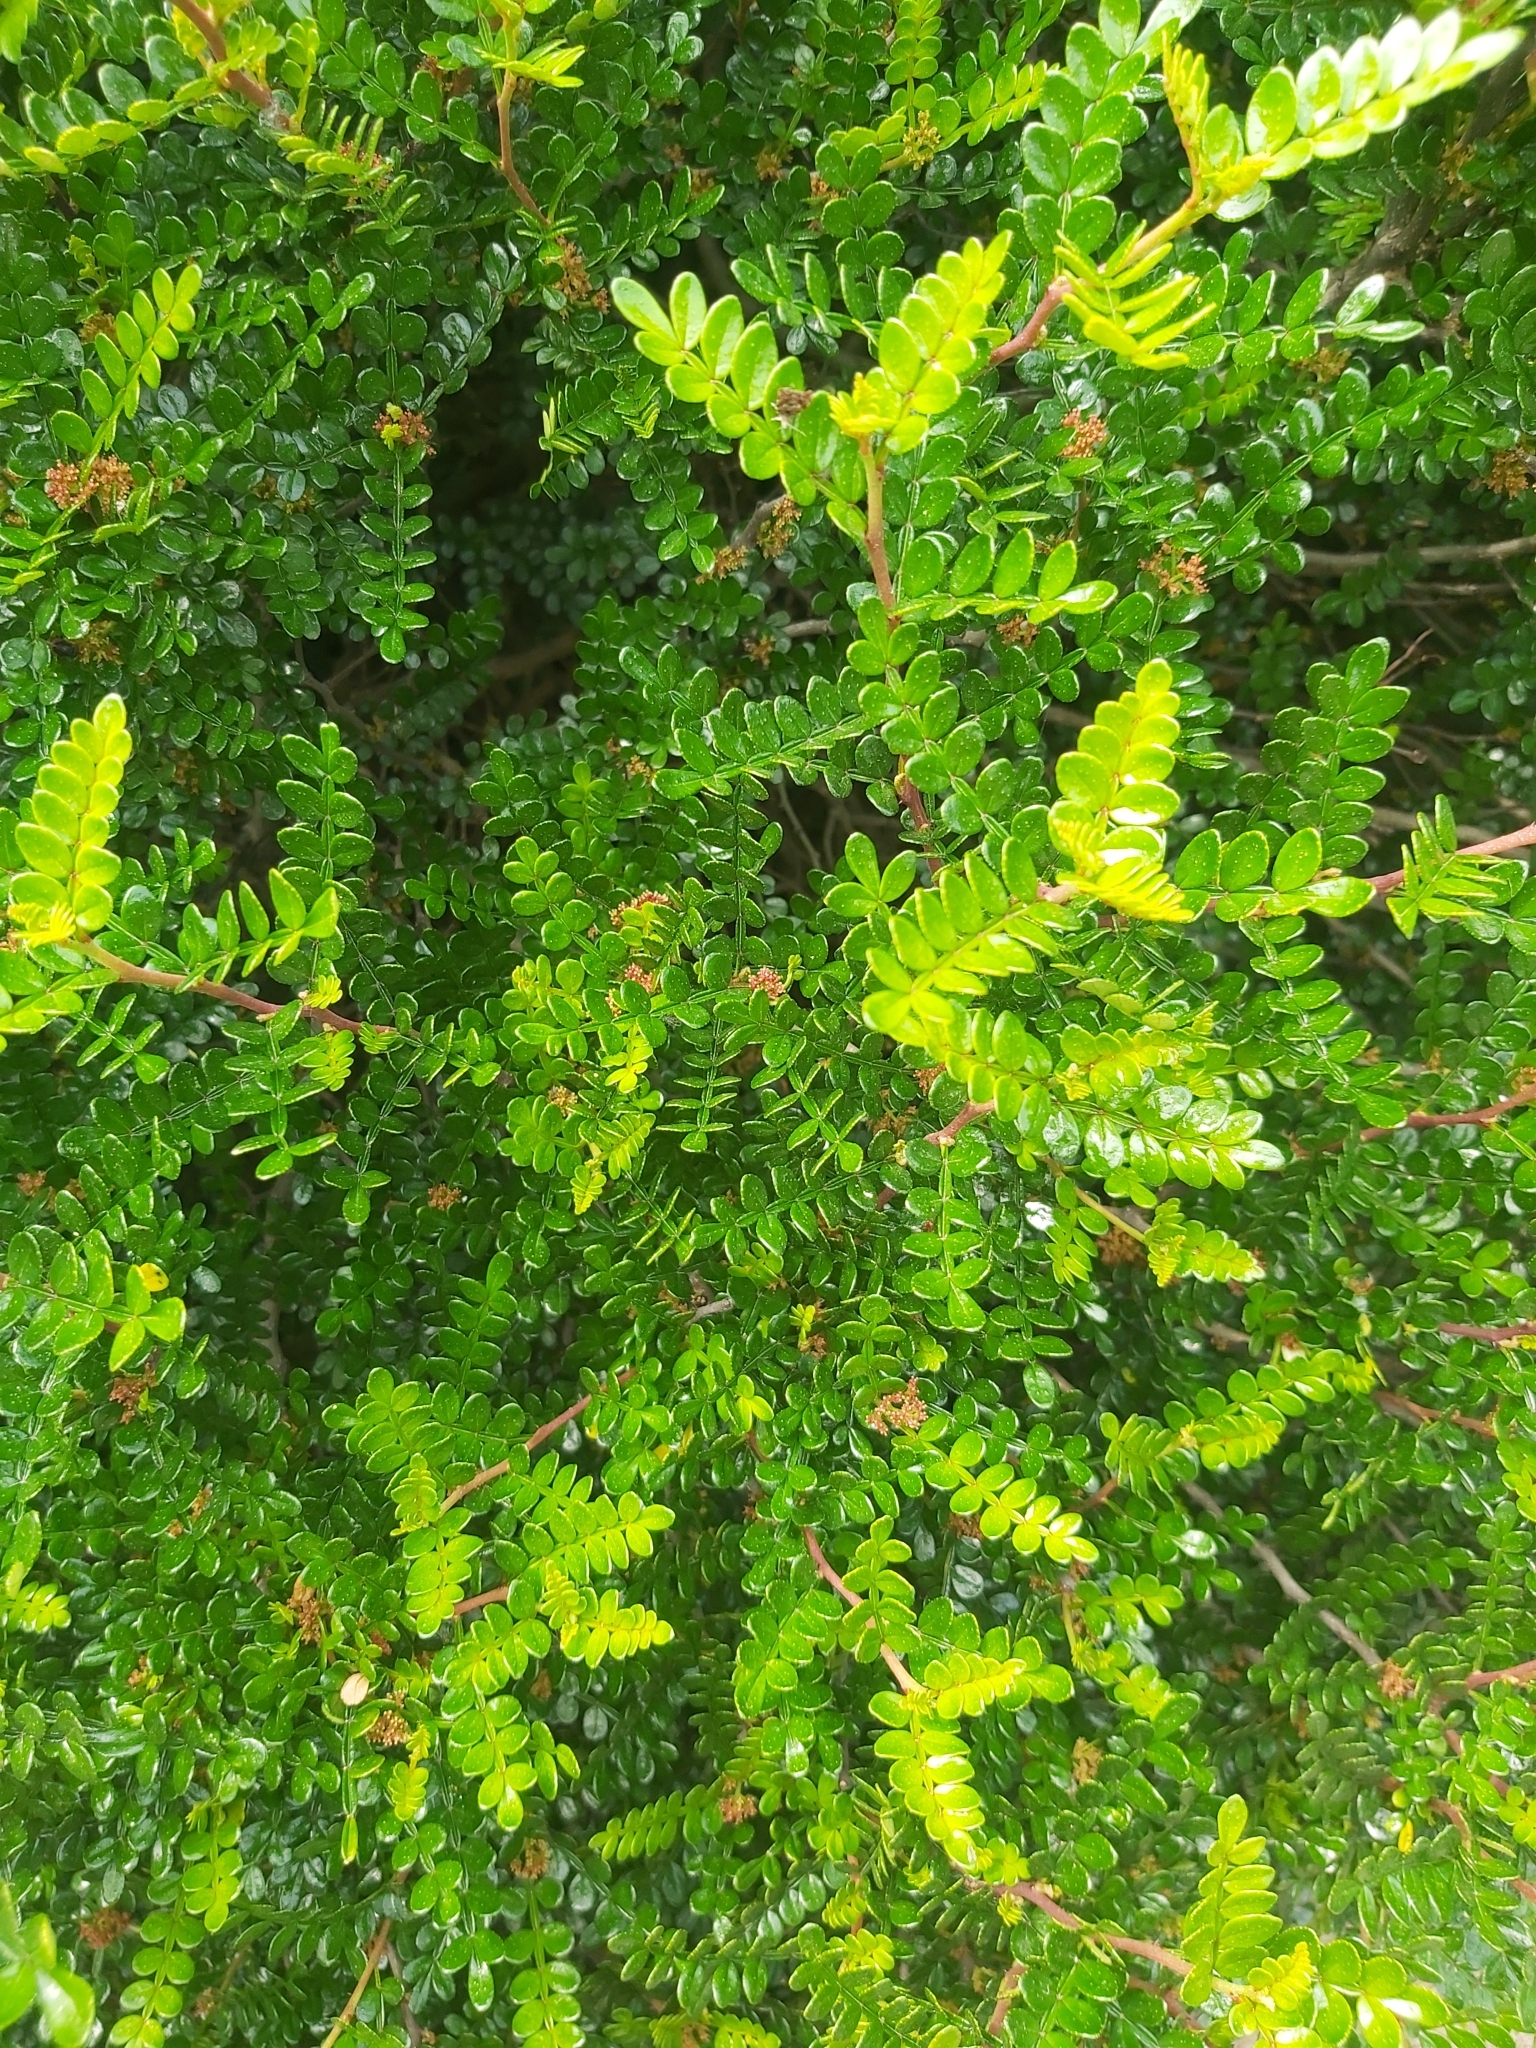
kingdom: Plantae
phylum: Tracheophyta
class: Magnoliopsida
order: Sapindales
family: Rutaceae
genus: Zanthoxylum
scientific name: Zanthoxylum beecheyanum
